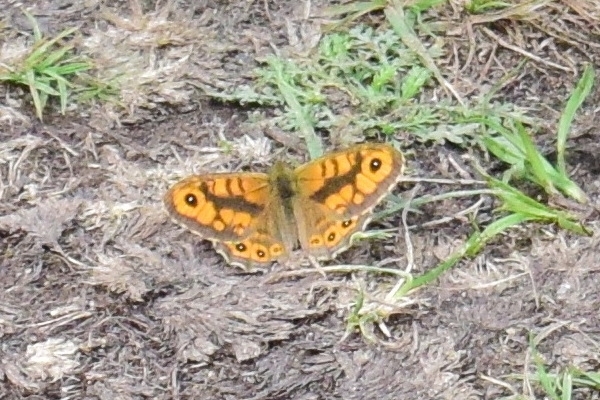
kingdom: Animalia
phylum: Arthropoda
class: Insecta
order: Lepidoptera
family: Nymphalidae
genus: Pararge
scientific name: Pararge Lasiommata megera
